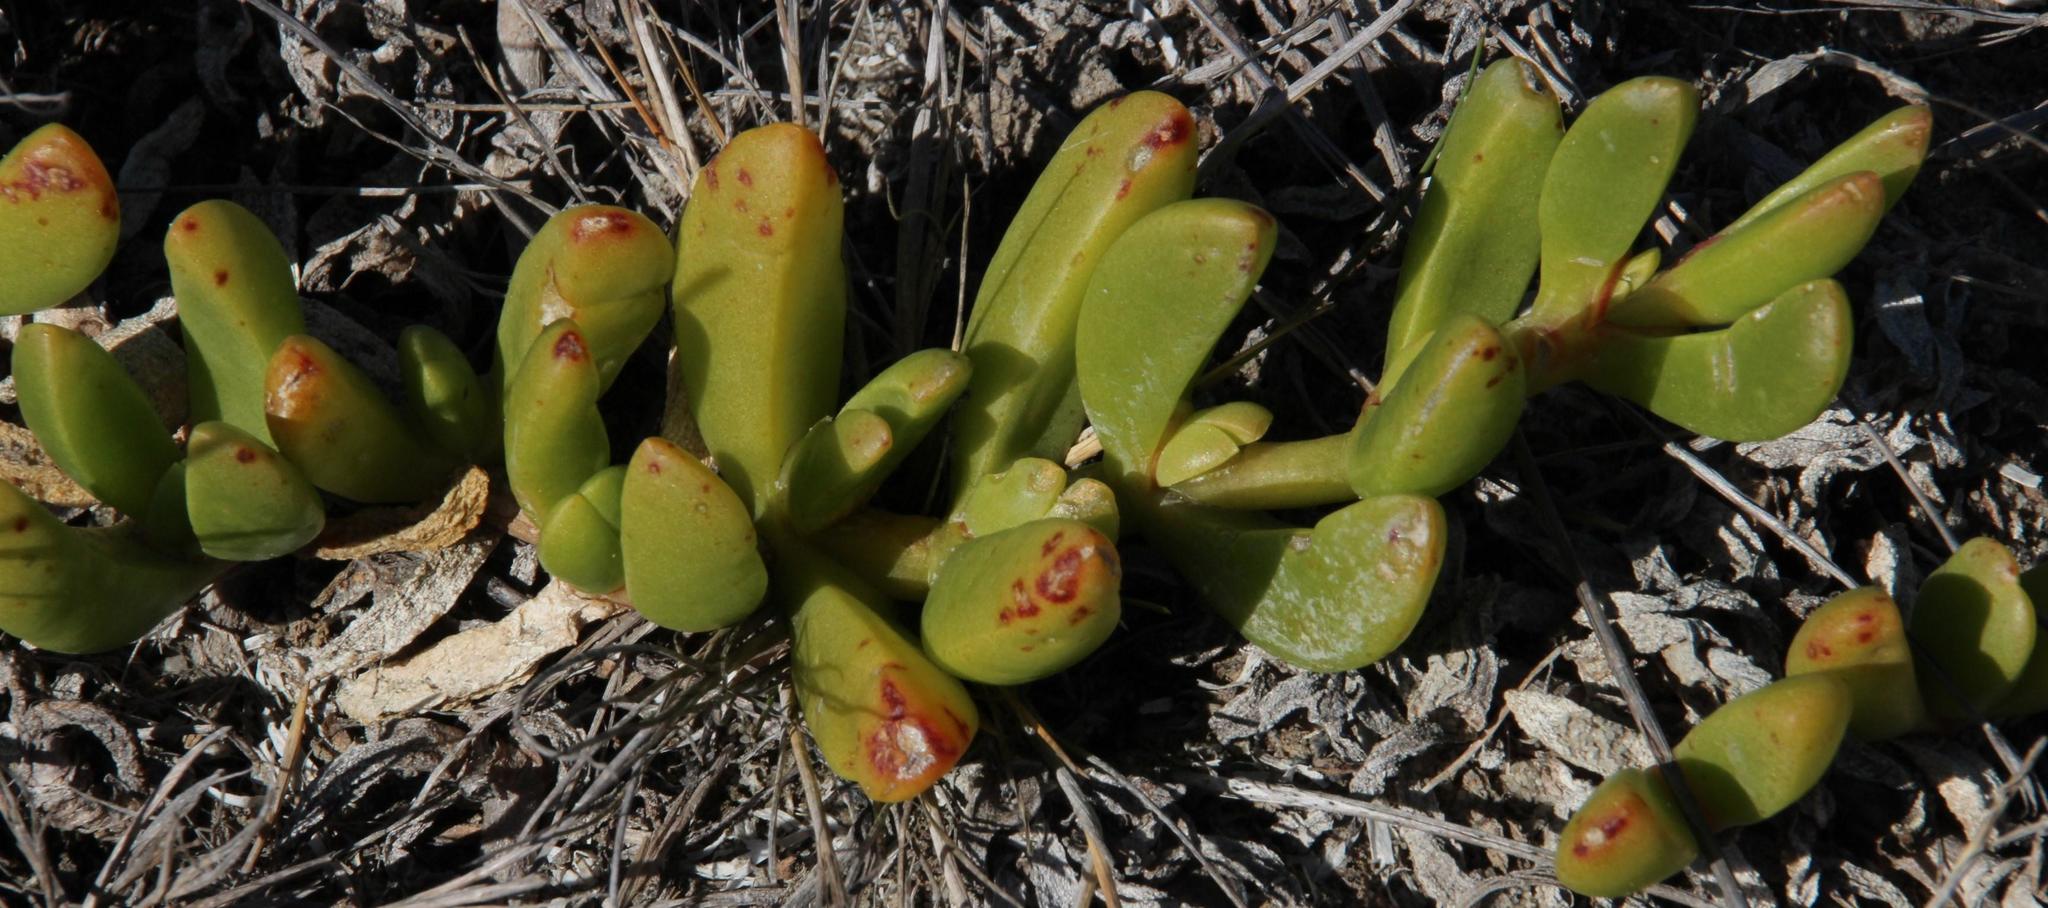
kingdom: Plantae
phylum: Tracheophyta
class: Magnoliopsida
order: Caryophyllales
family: Aizoaceae
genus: Disphyma
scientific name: Disphyma crassifolium
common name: Purple dewplant
